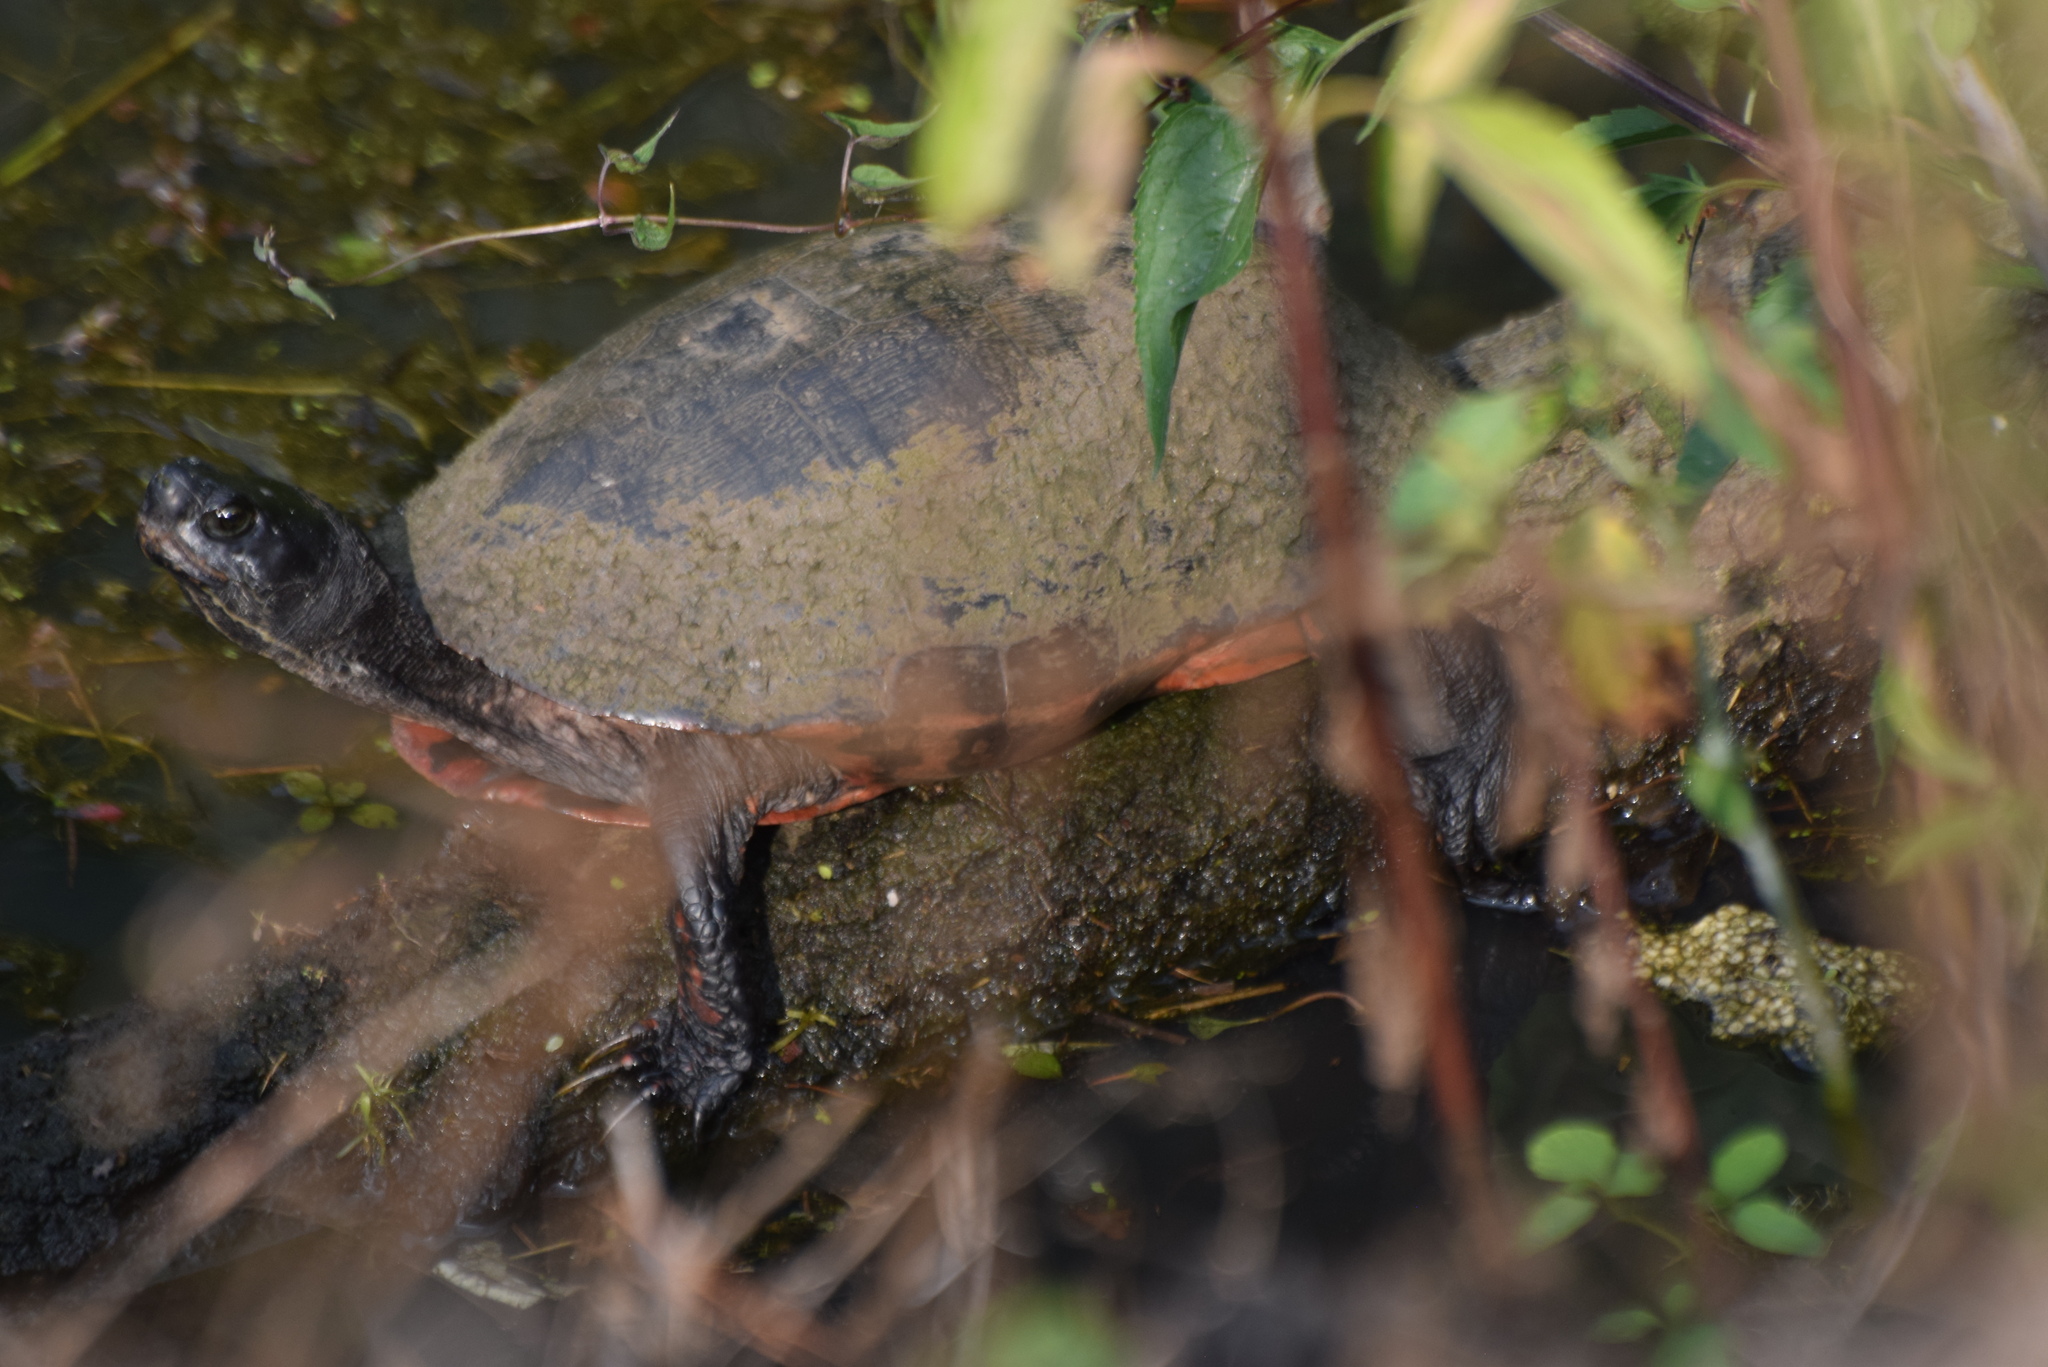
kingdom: Animalia
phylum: Chordata
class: Testudines
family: Emydidae
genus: Pseudemys
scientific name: Pseudemys rubriventris
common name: American red-bellied turtle
